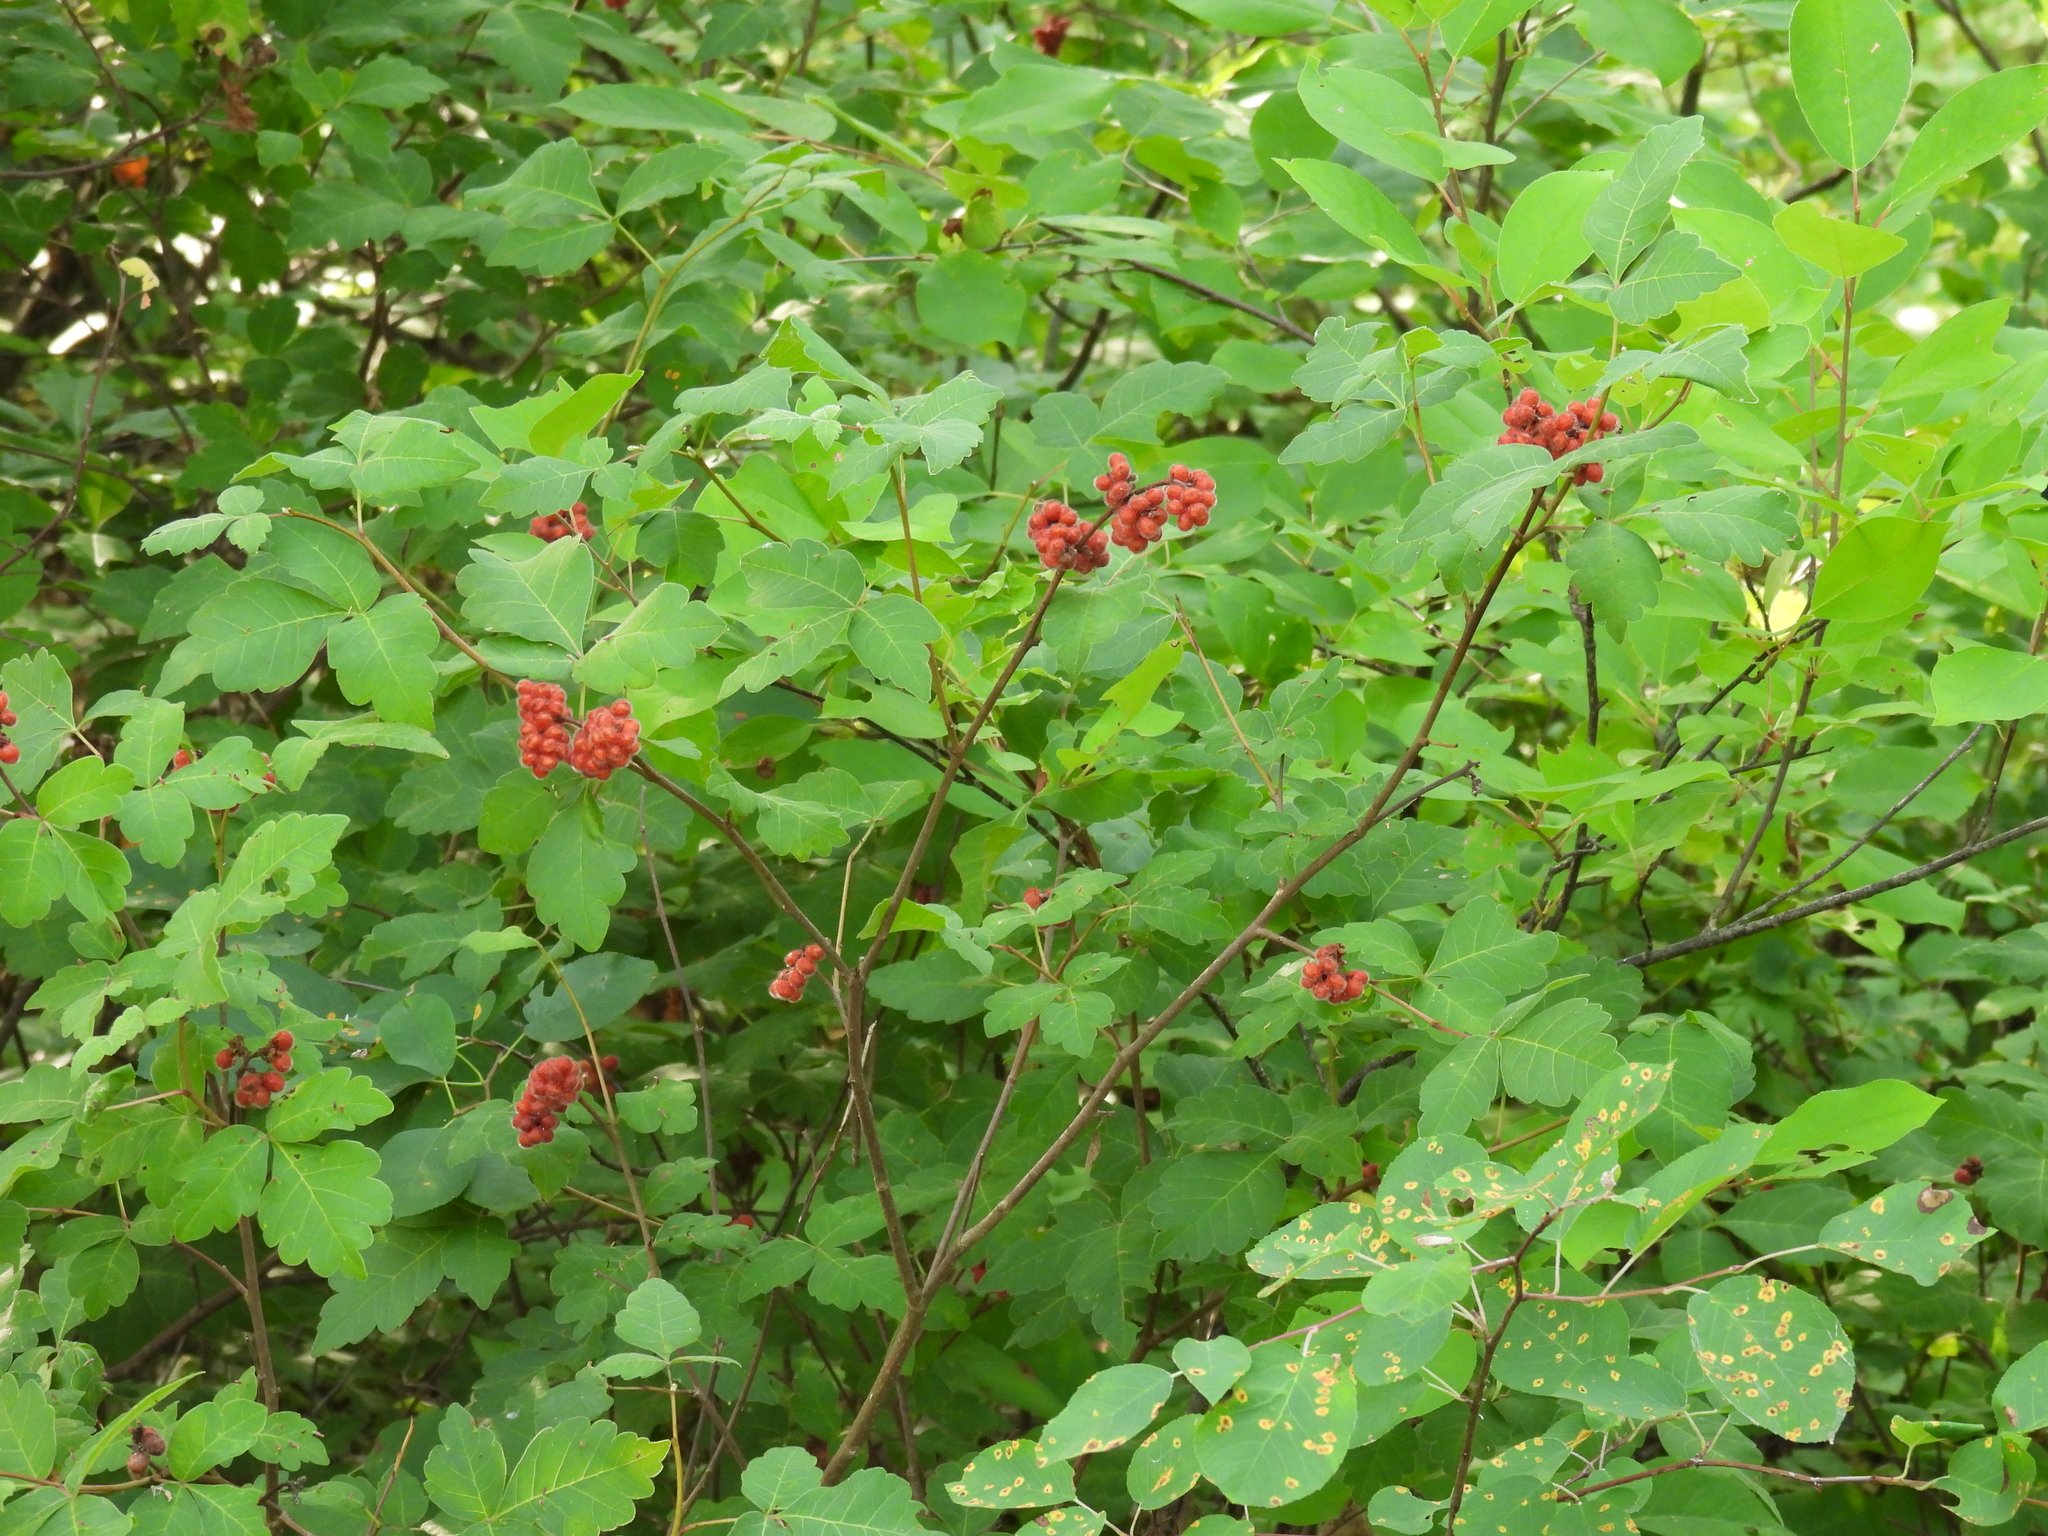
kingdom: Plantae
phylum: Tracheophyta
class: Magnoliopsida
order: Sapindales
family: Anacardiaceae
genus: Rhus
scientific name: Rhus aromatica
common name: Aromatic sumac
